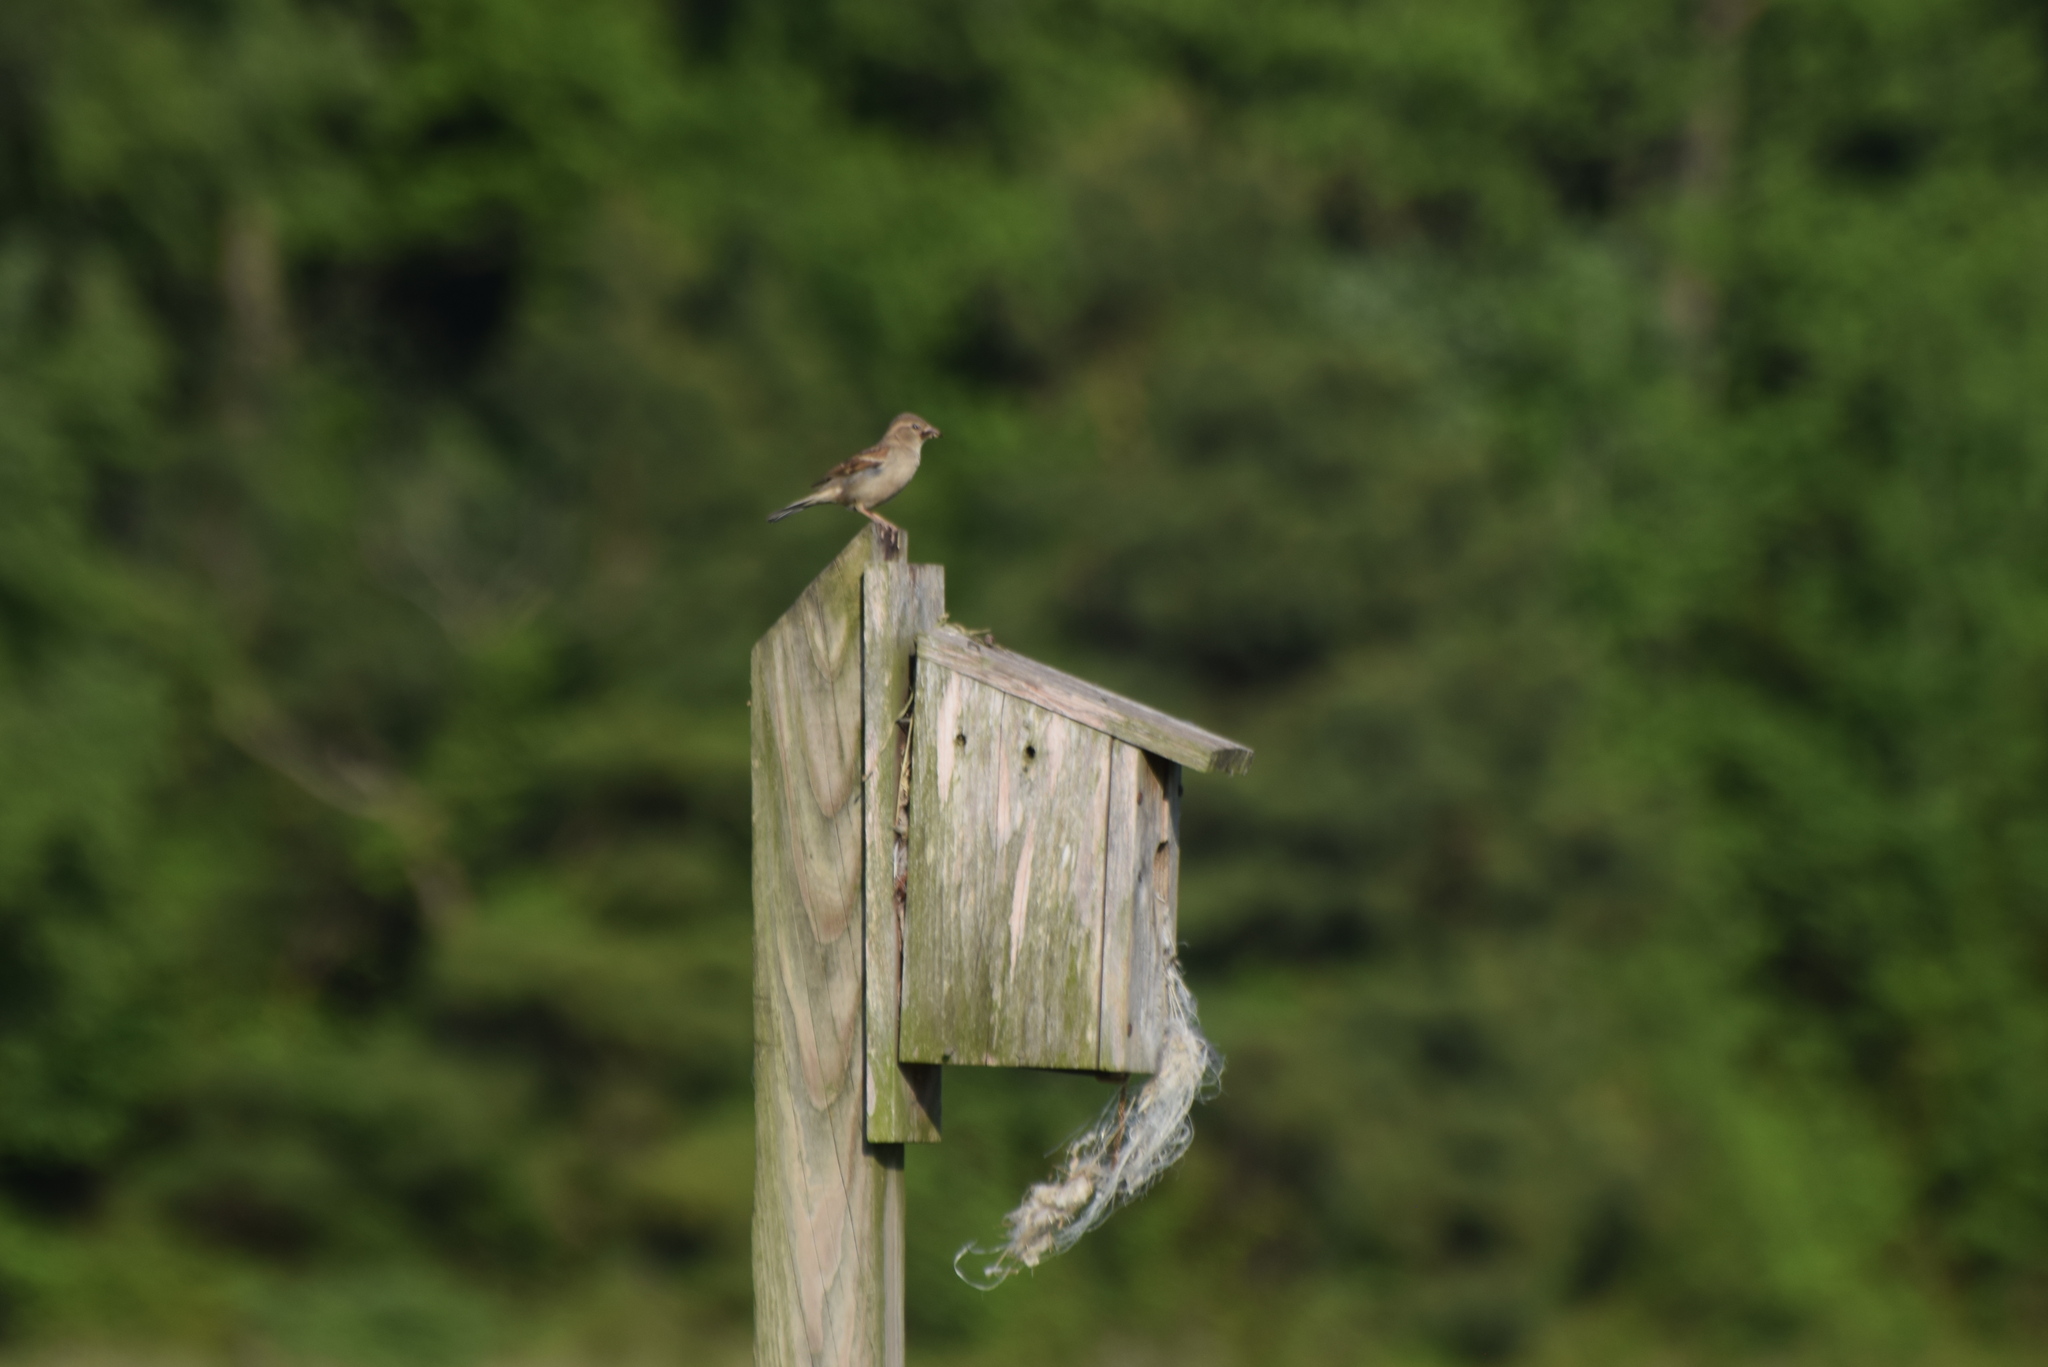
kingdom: Animalia
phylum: Chordata
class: Aves
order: Passeriformes
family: Passeridae
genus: Passer
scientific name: Passer domesticus
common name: House sparrow
